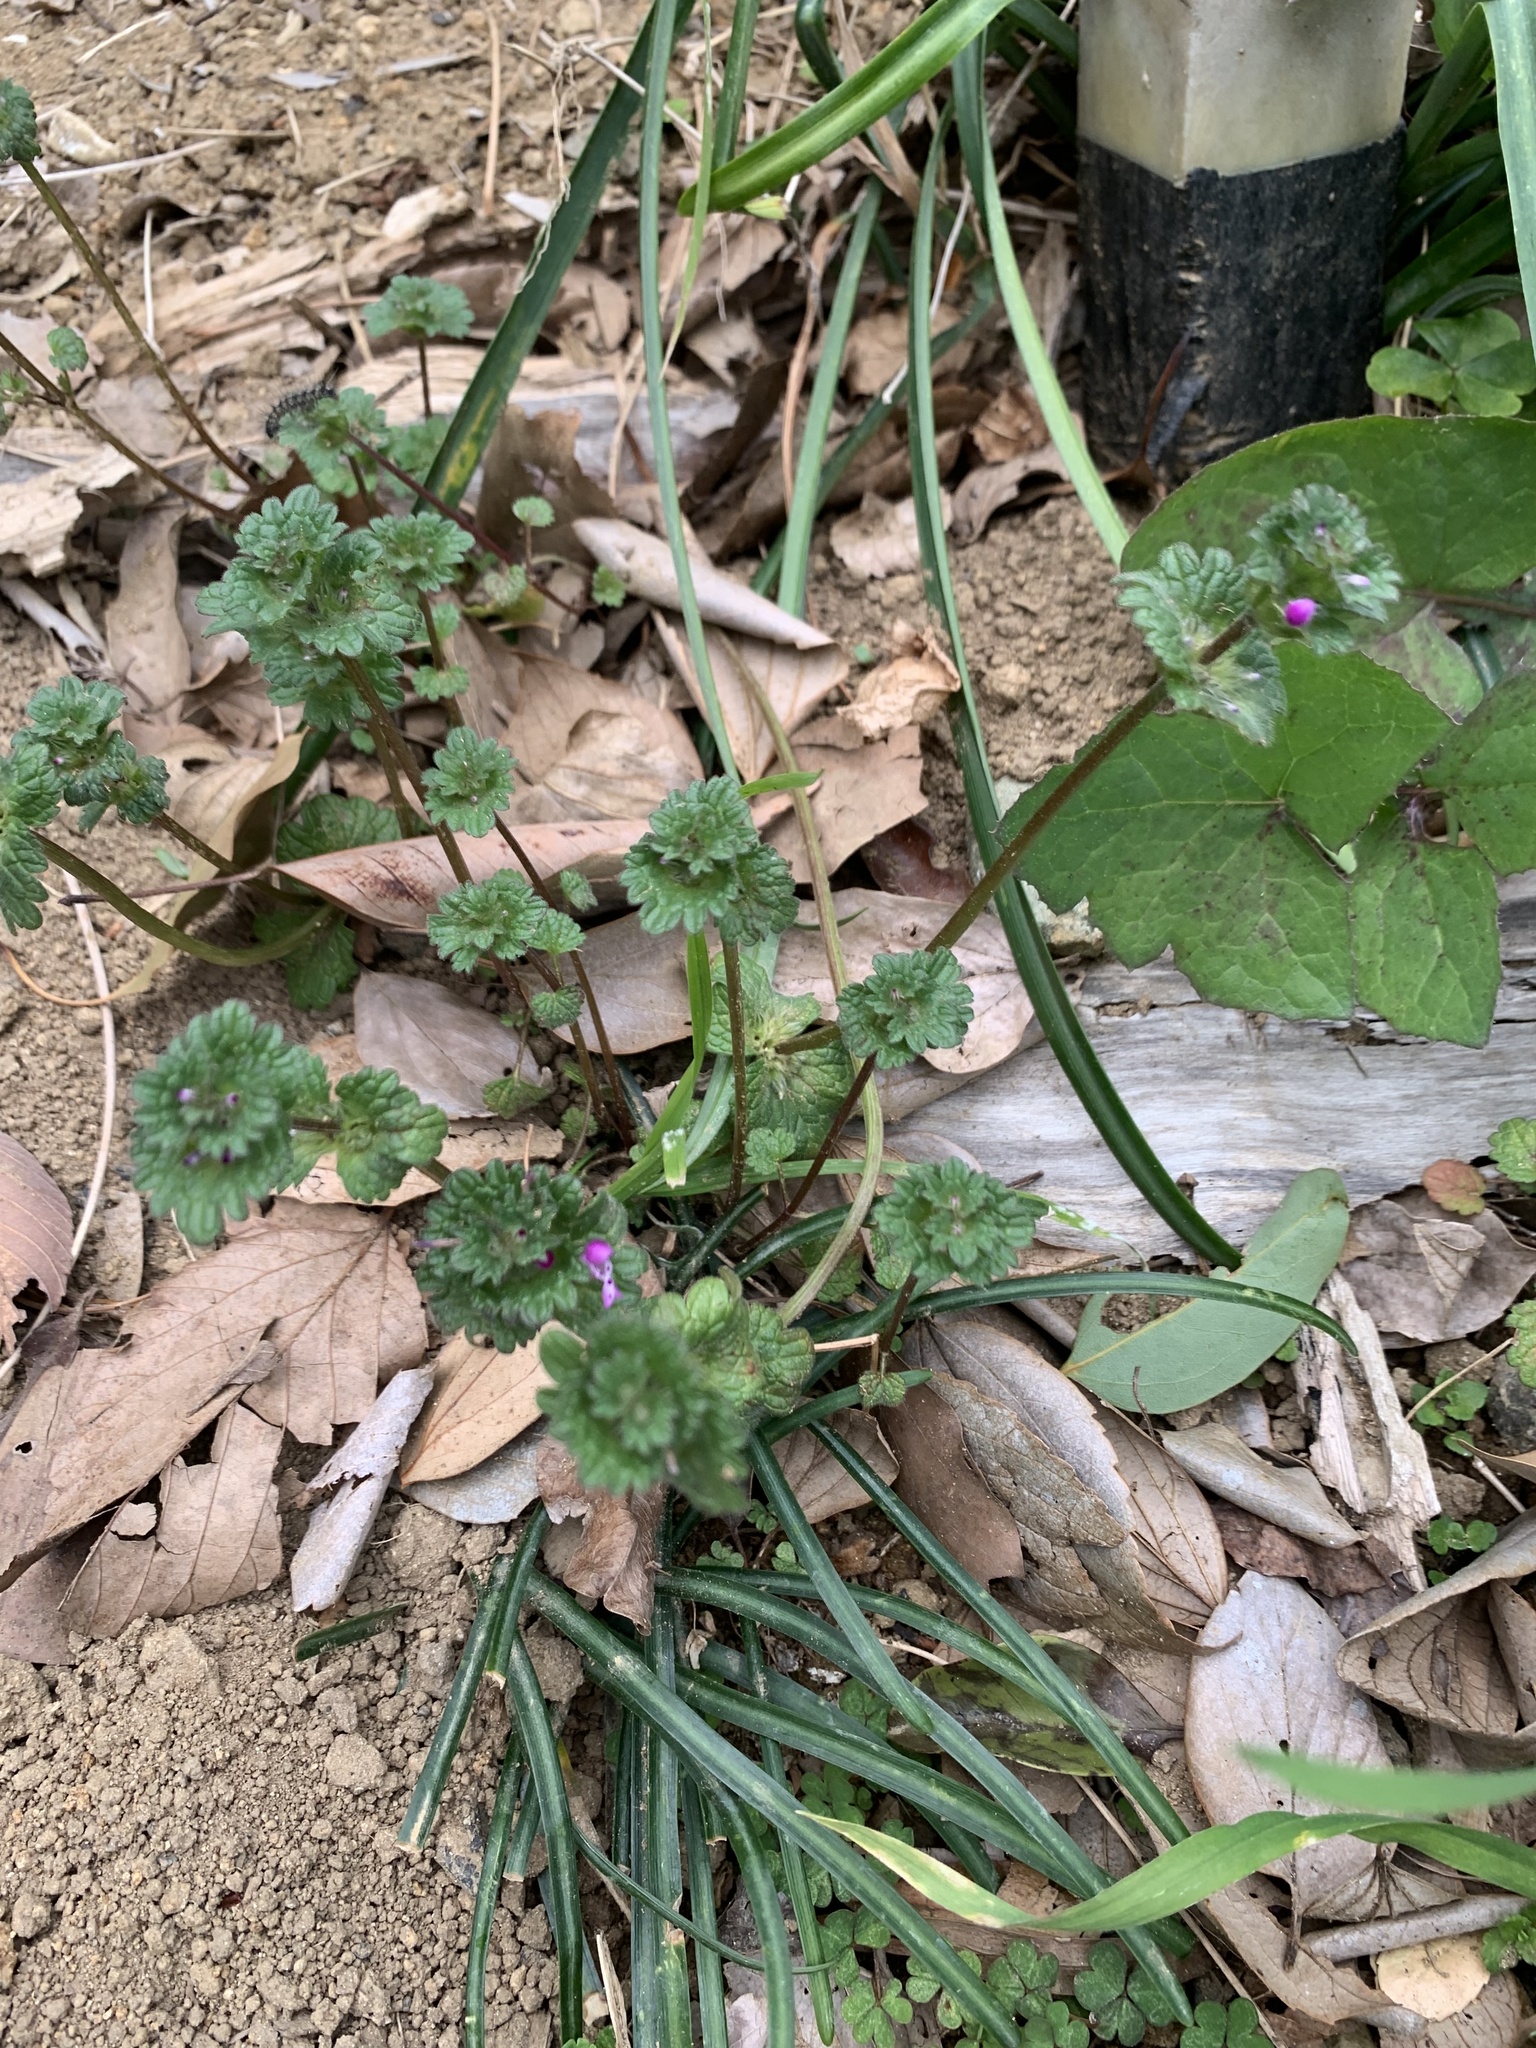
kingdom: Plantae
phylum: Tracheophyta
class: Magnoliopsida
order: Lamiales
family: Lamiaceae
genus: Lamium
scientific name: Lamium amplexicaule
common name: Henbit dead-nettle
